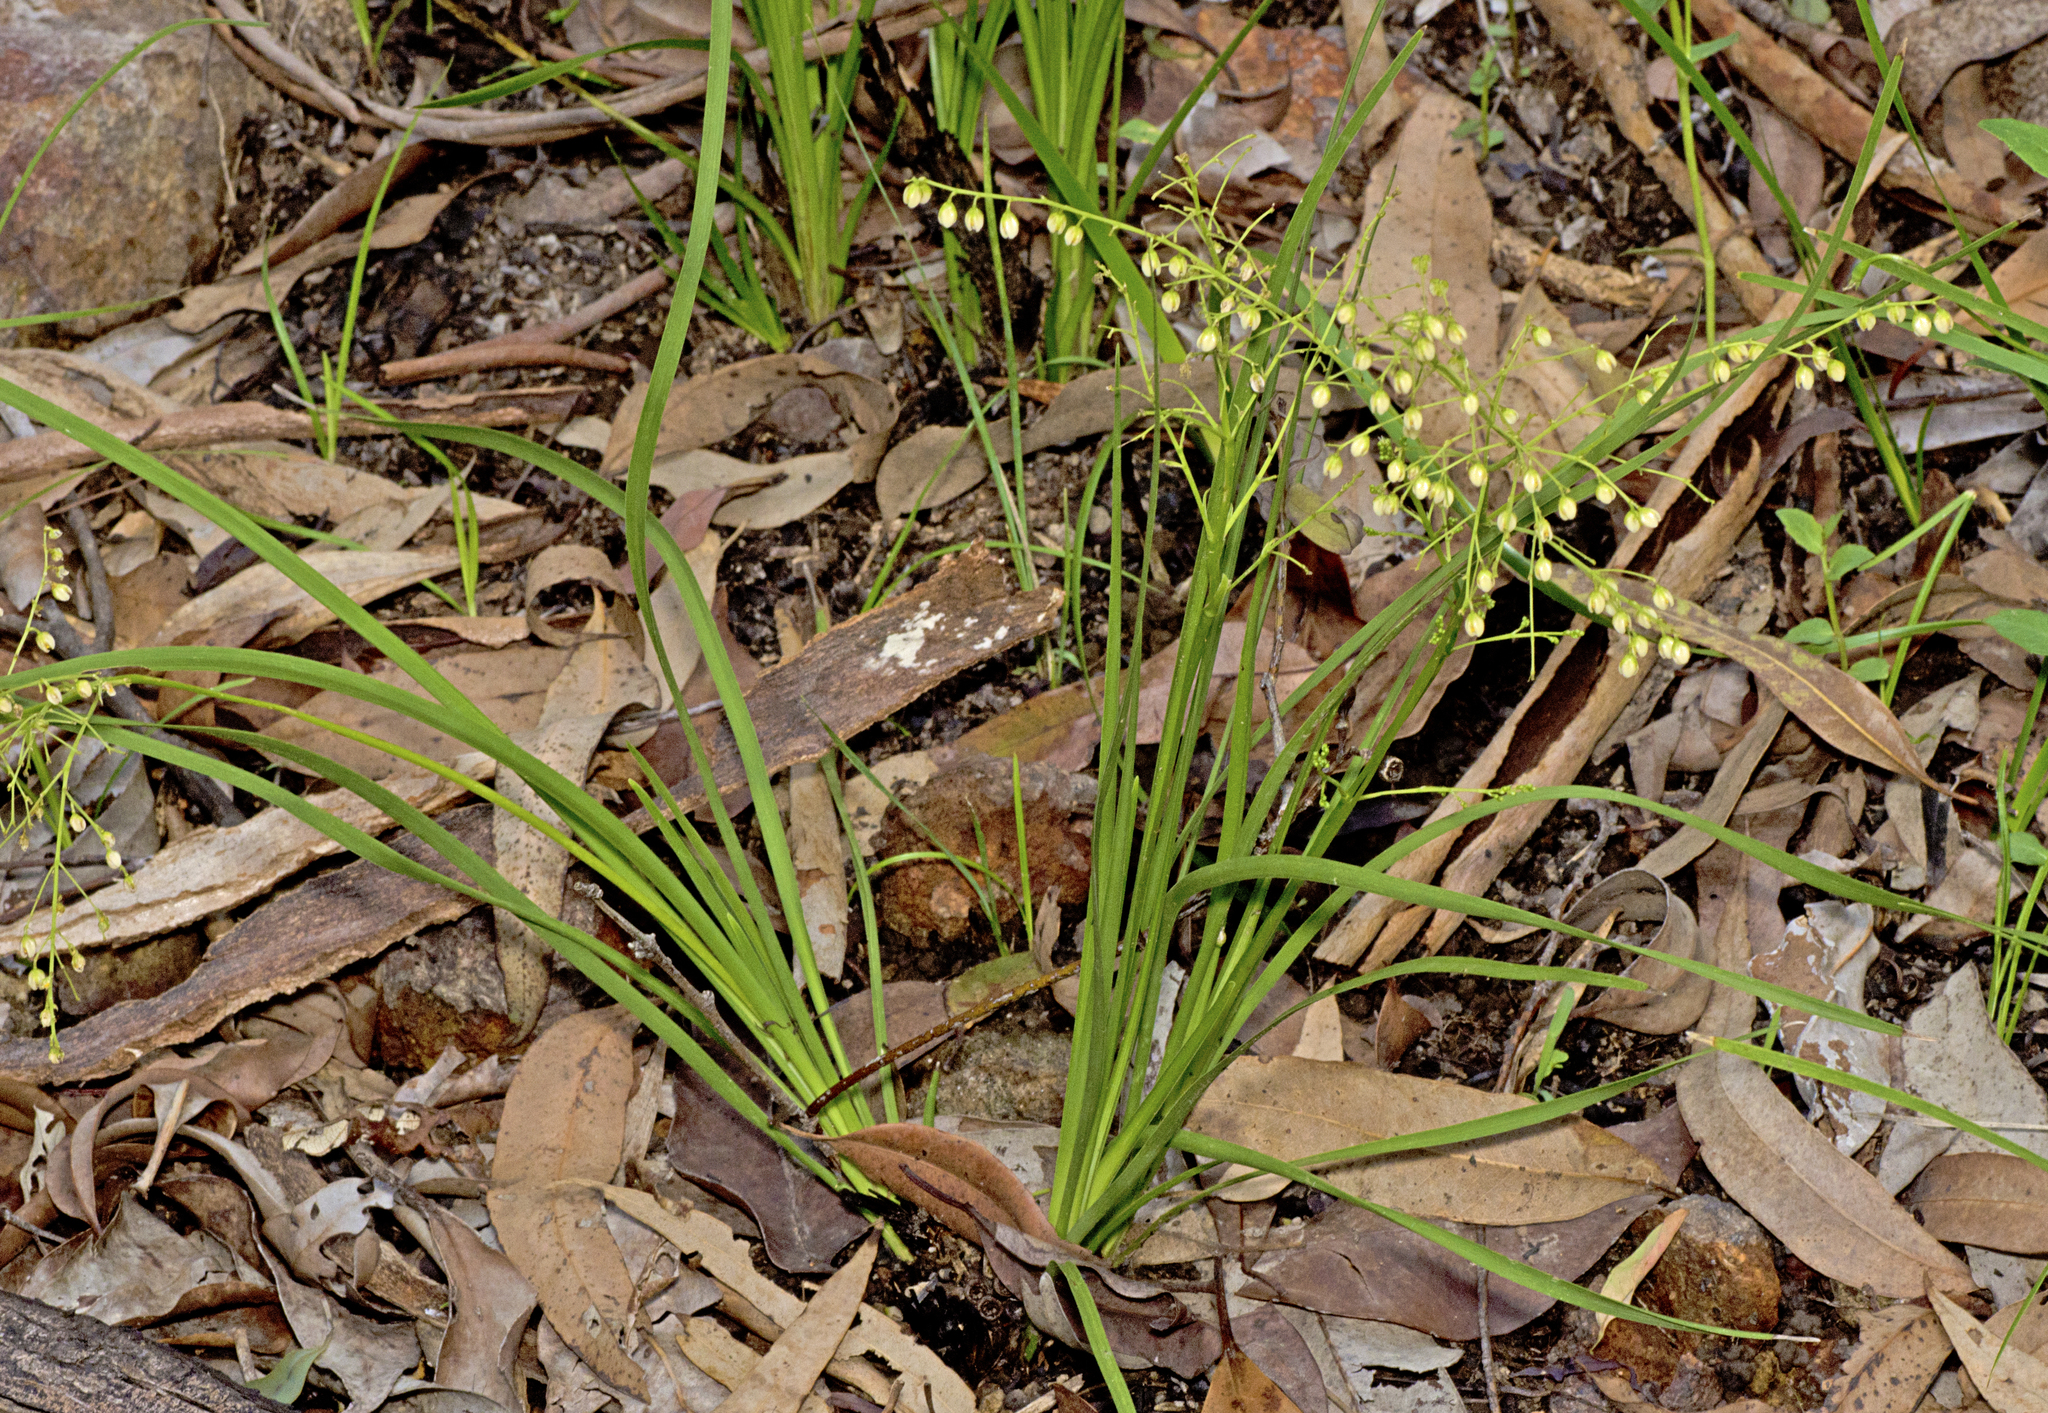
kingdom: Plantae
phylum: Tracheophyta
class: Liliopsida
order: Asparagales
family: Asparagaceae
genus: Lomandra
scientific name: Lomandra laxa
